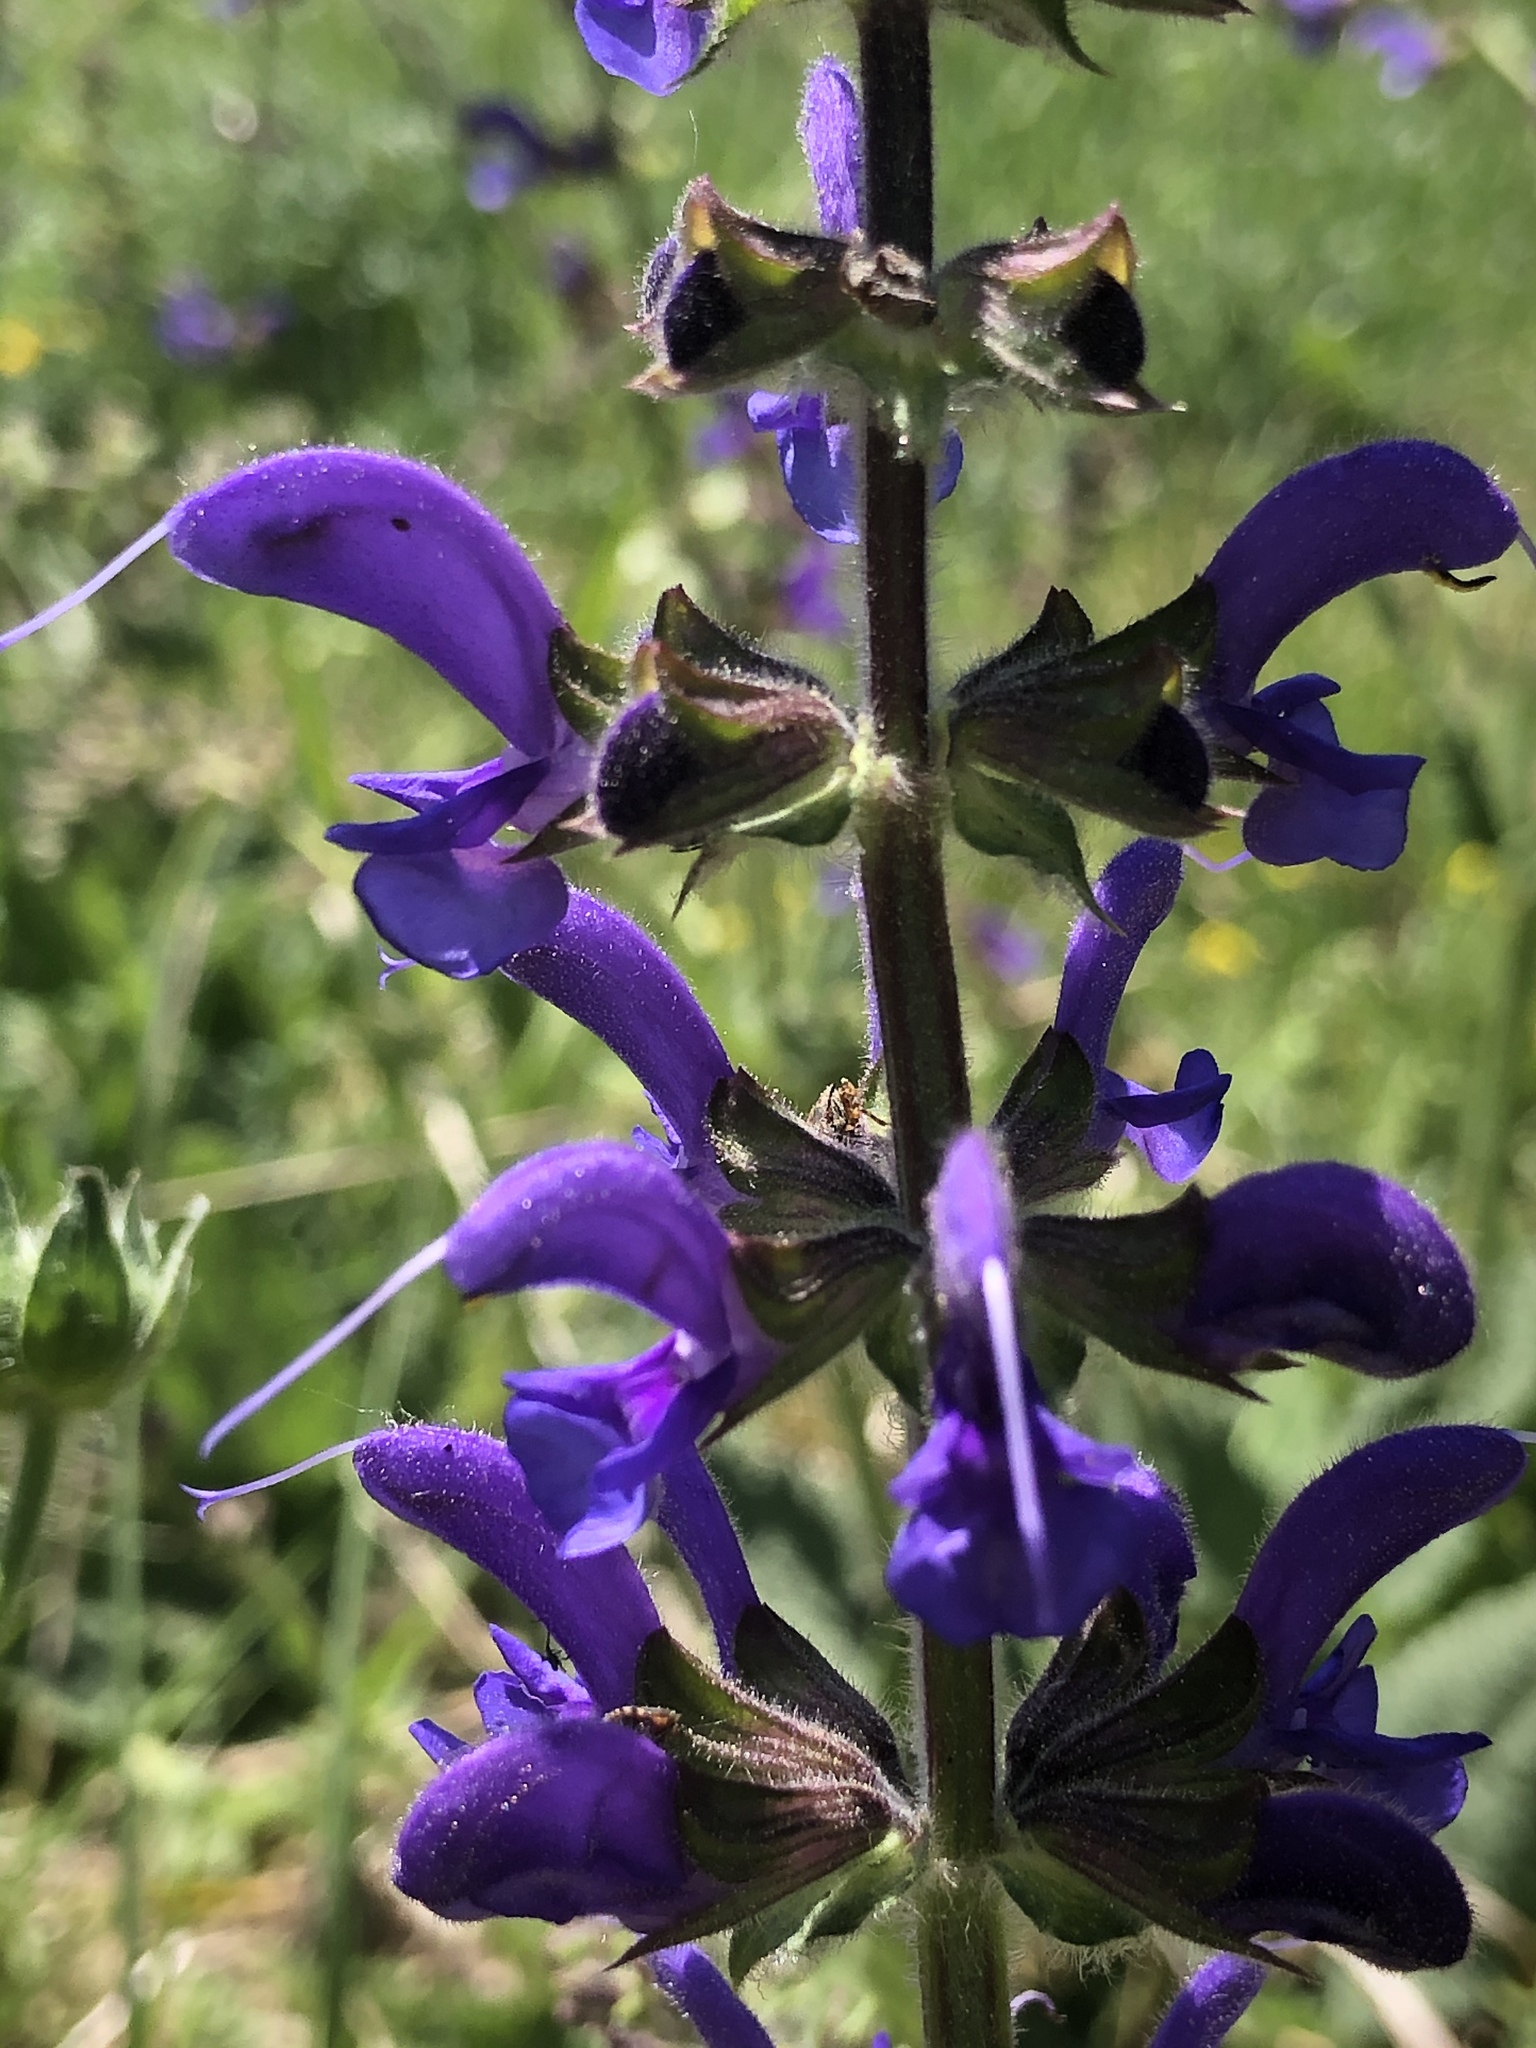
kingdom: Plantae
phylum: Tracheophyta
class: Magnoliopsida
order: Lamiales
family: Lamiaceae
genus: Salvia
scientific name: Salvia pratensis
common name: Meadow sage
